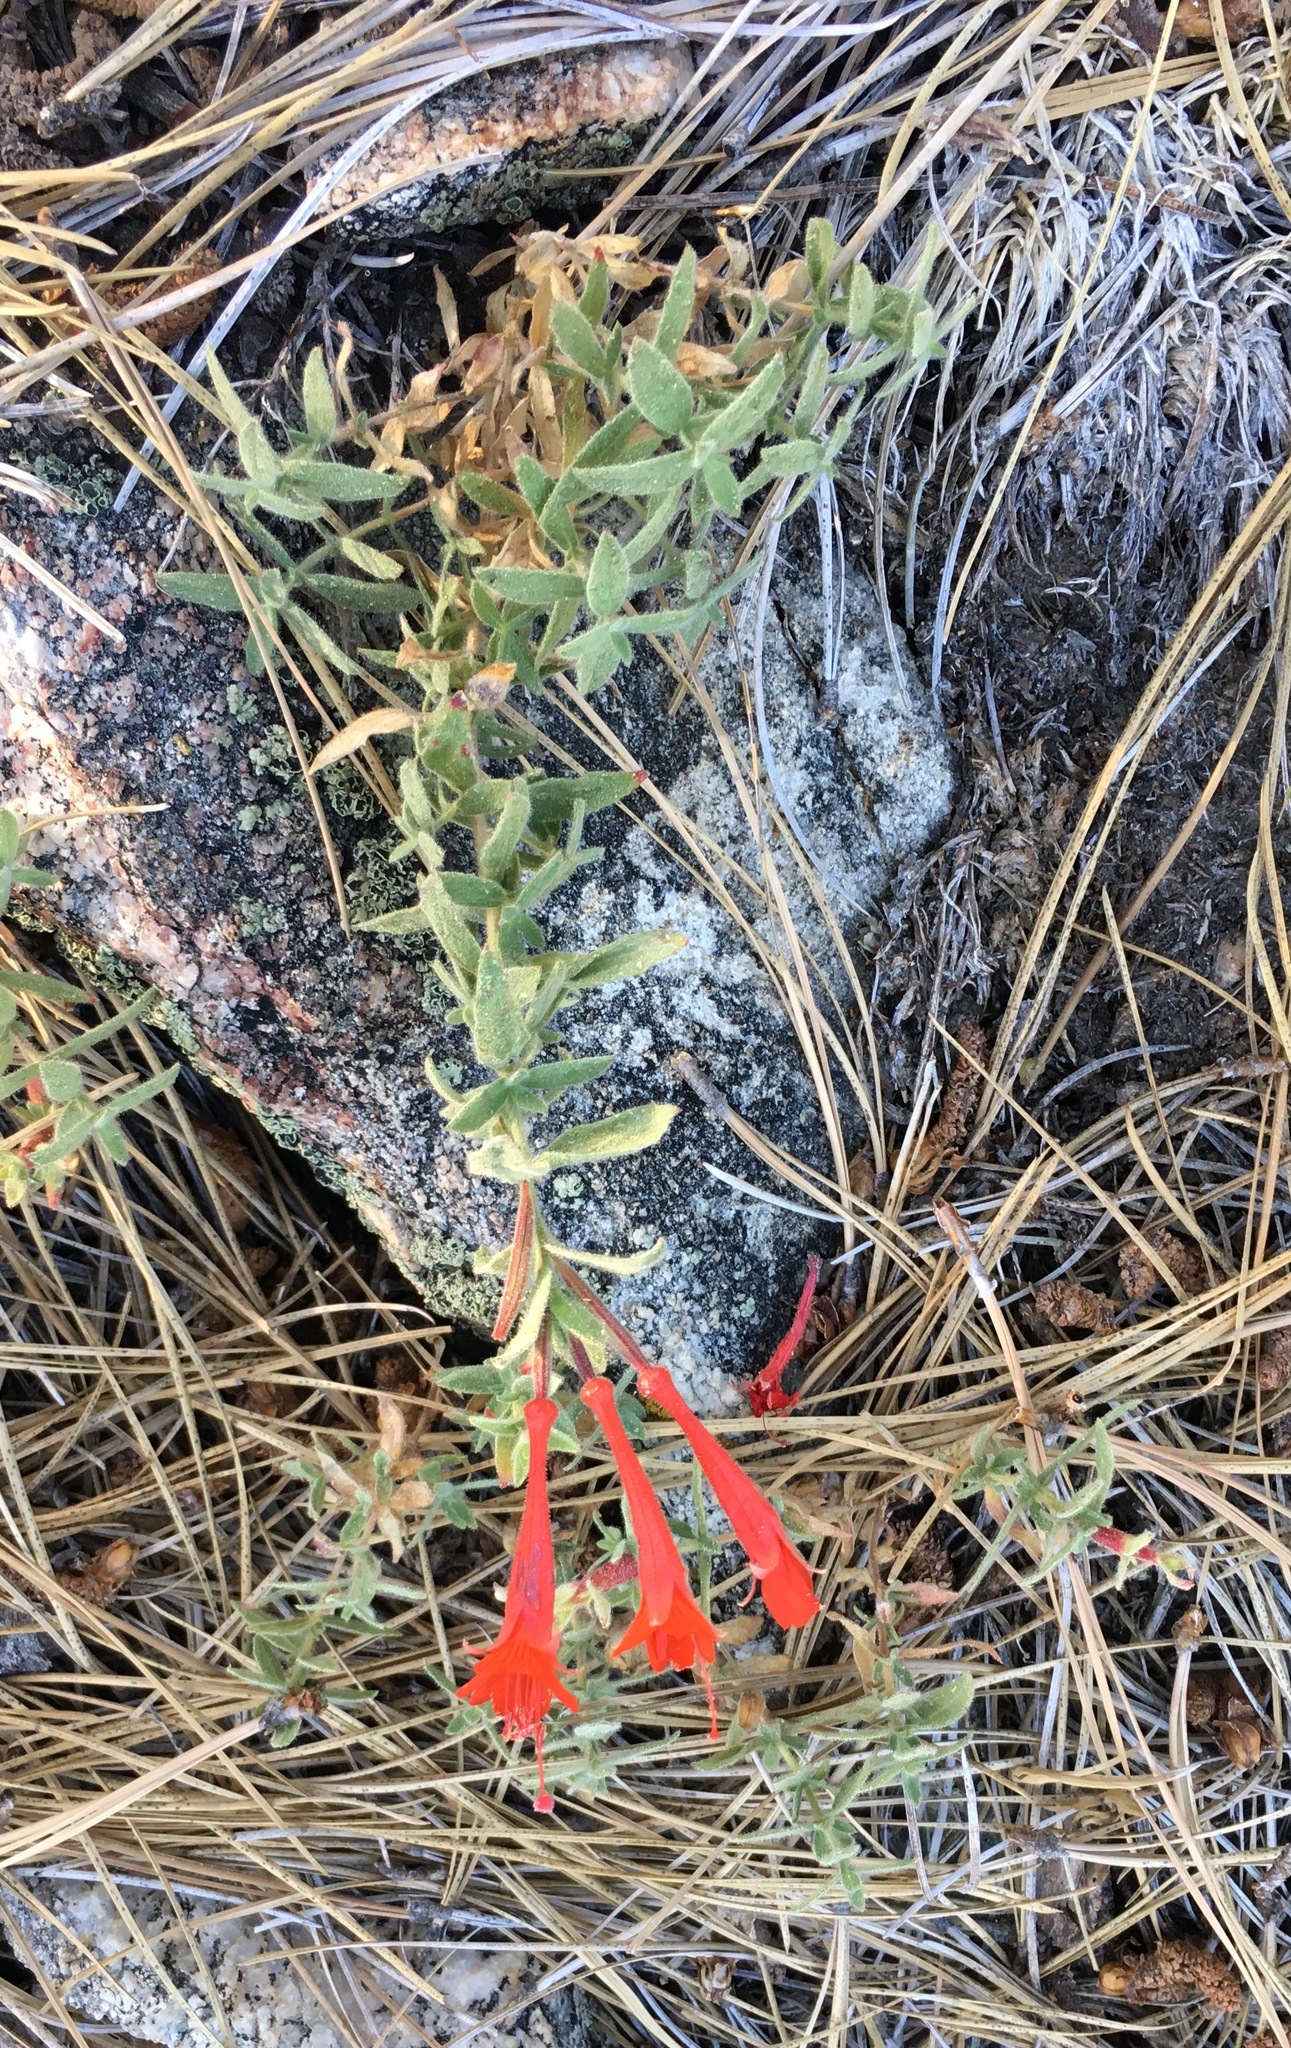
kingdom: Plantae
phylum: Tracheophyta
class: Magnoliopsida
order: Myrtales
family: Onagraceae
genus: Epilobium
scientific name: Epilobium canum
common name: California-fuchsia
